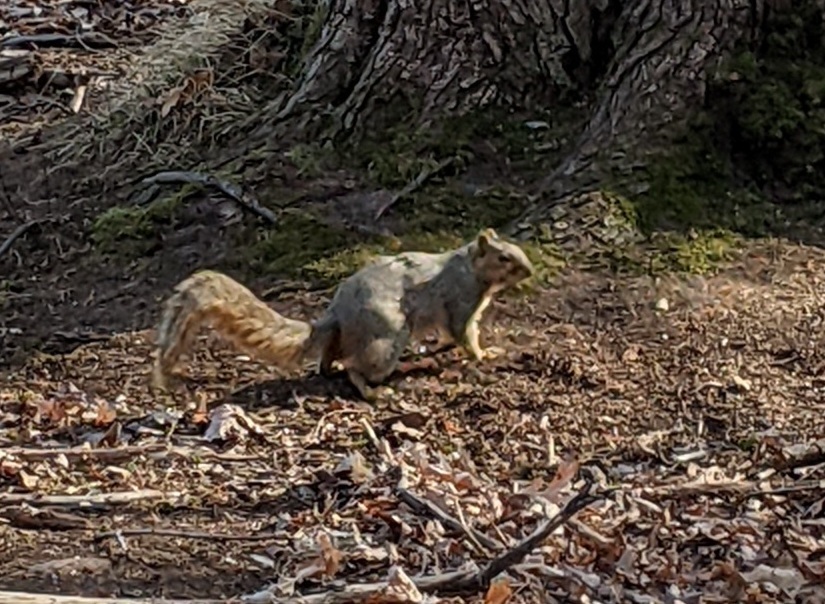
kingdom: Animalia
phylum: Chordata
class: Mammalia
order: Rodentia
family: Sciuridae
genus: Sciurus
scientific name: Sciurus niger
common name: Fox squirrel
